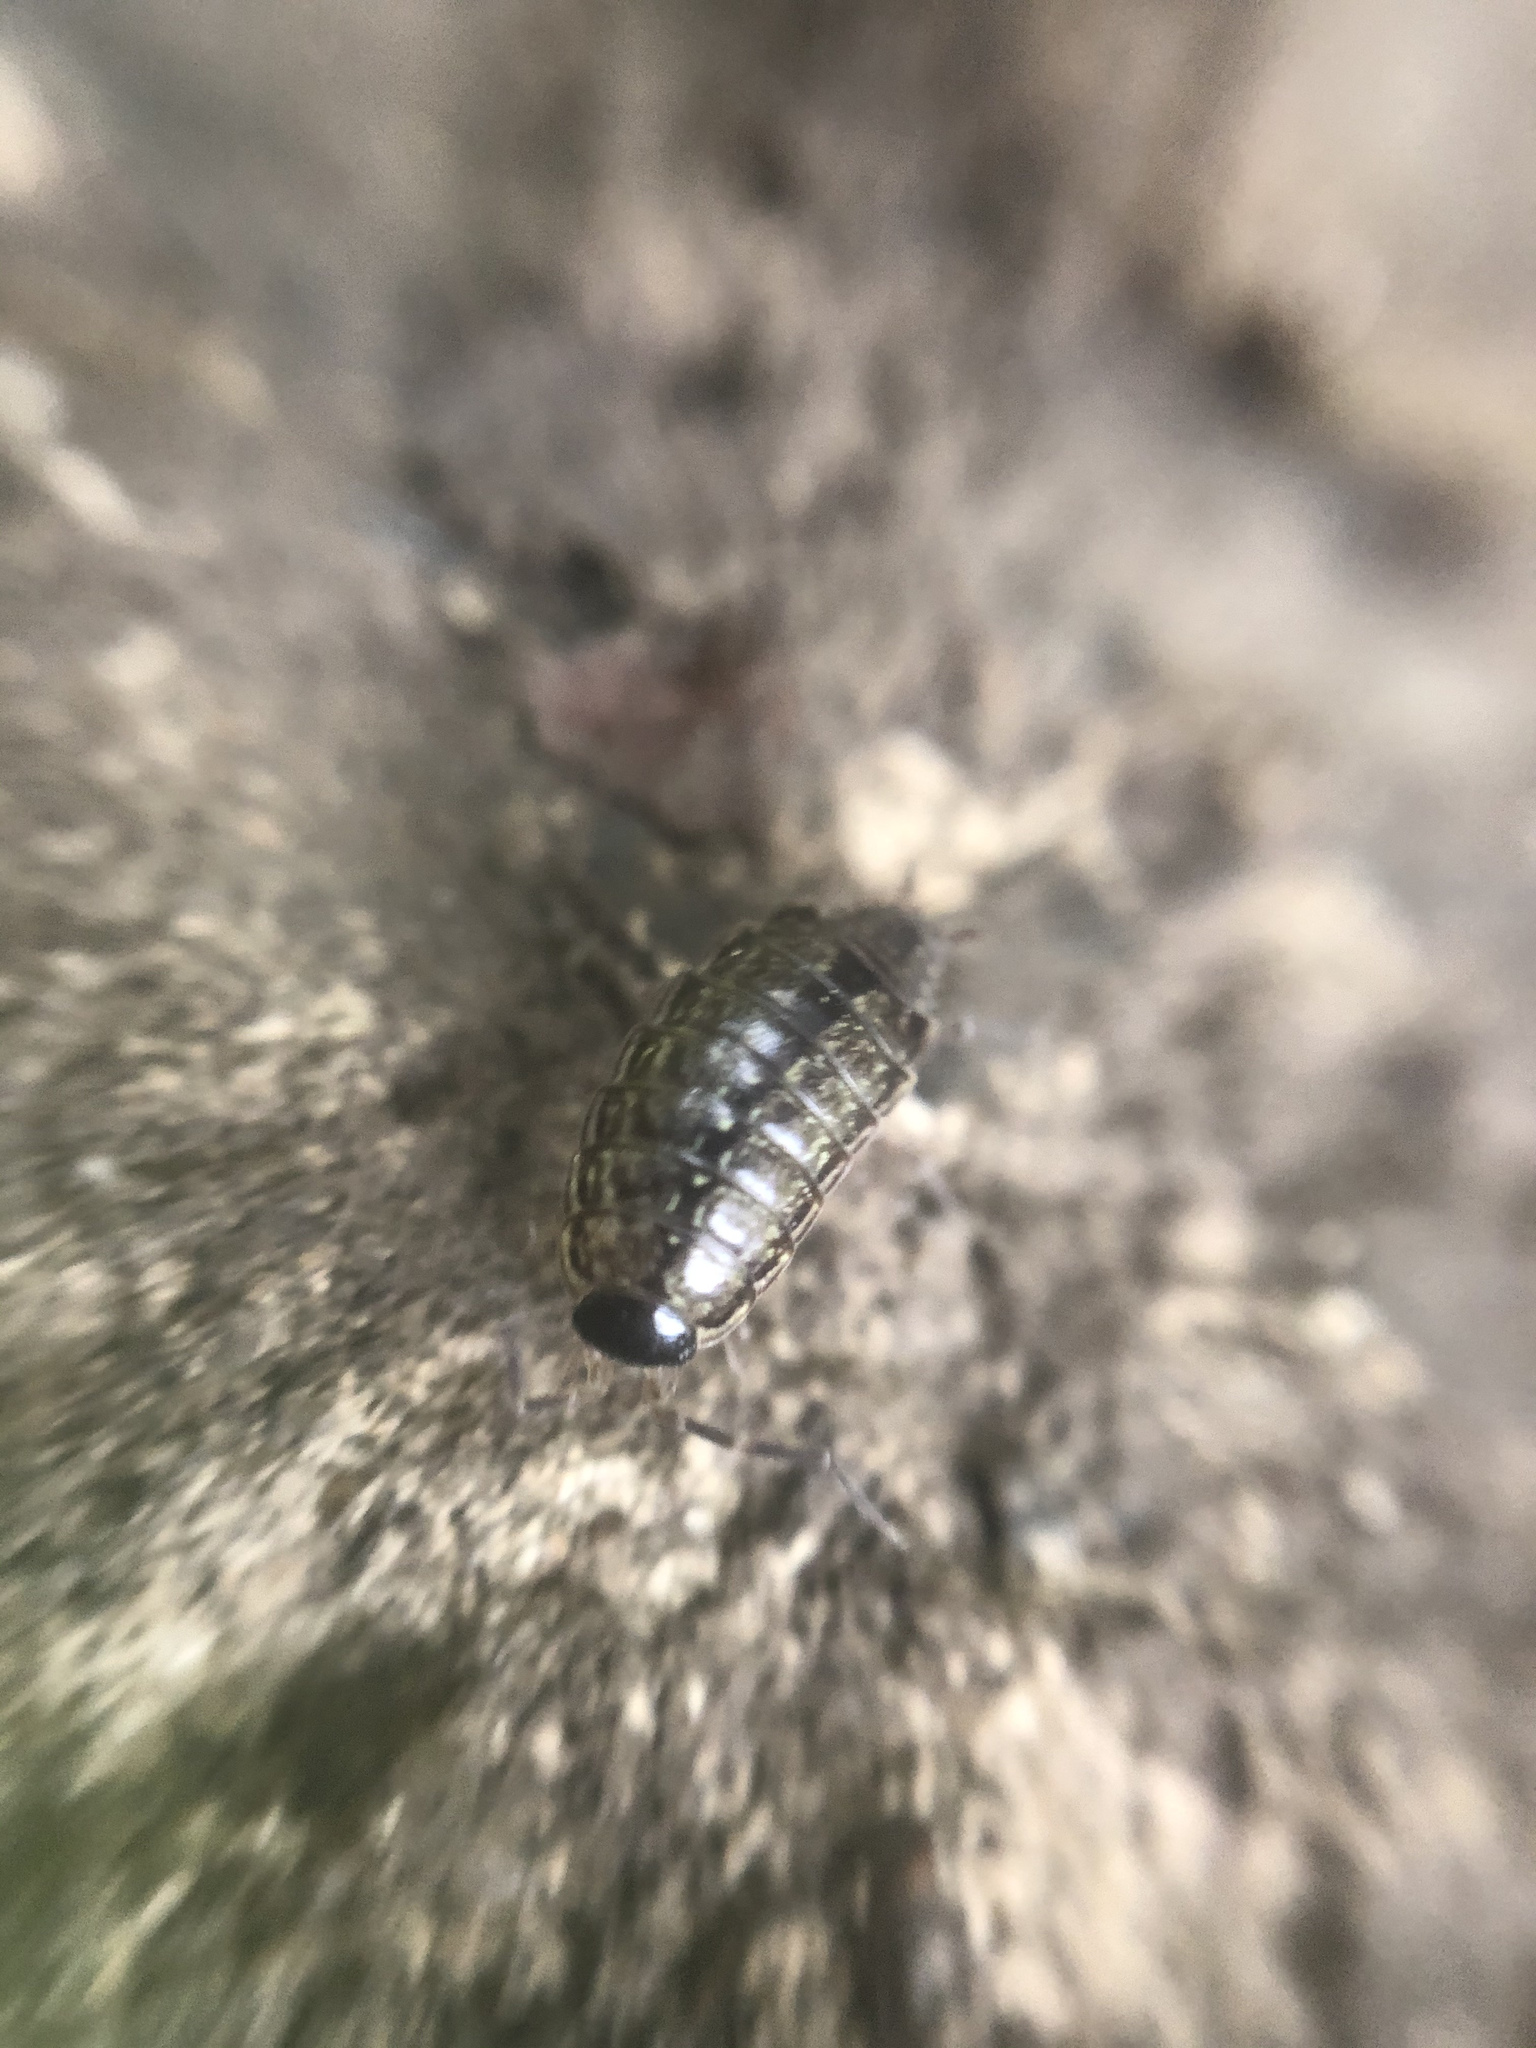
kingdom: Animalia
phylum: Arthropoda
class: Malacostraca
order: Isopoda
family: Philosciidae
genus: Philoscia
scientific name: Philoscia muscorum
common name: Common striped woodlouse
